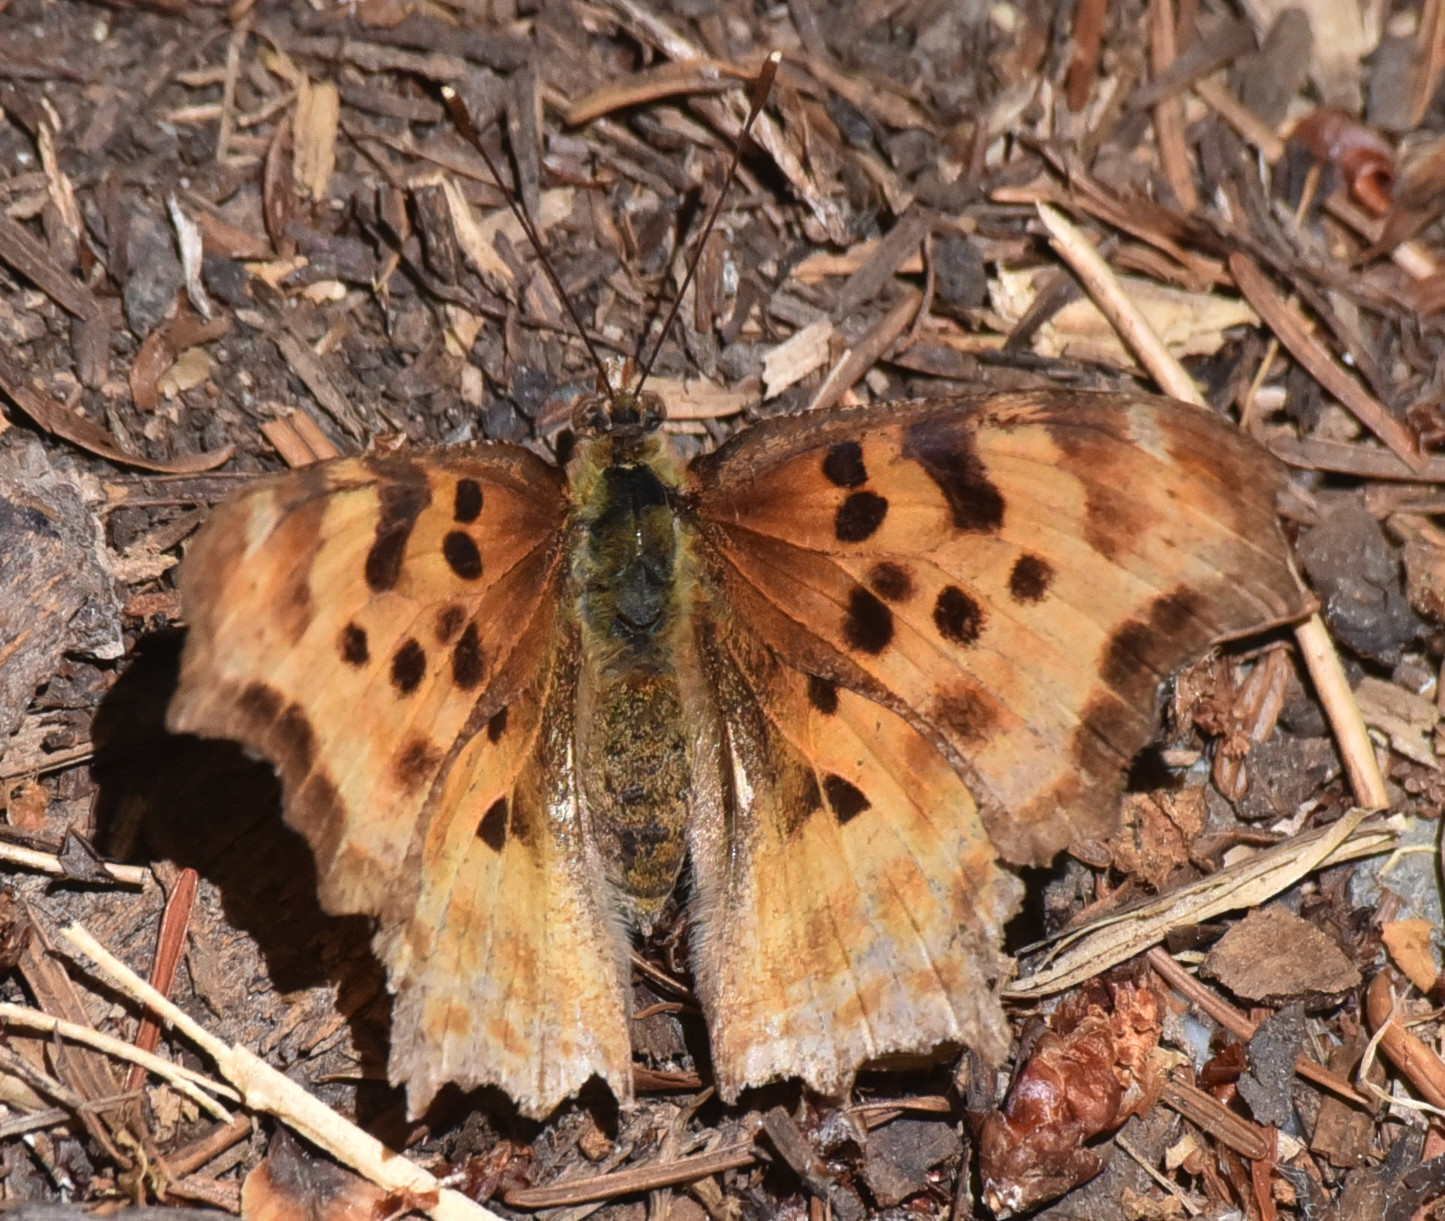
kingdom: Animalia
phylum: Arthropoda
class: Insecta
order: Lepidoptera
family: Nymphalidae
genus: Polygonia
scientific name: Polygonia satyrus
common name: Satyr angle wing
